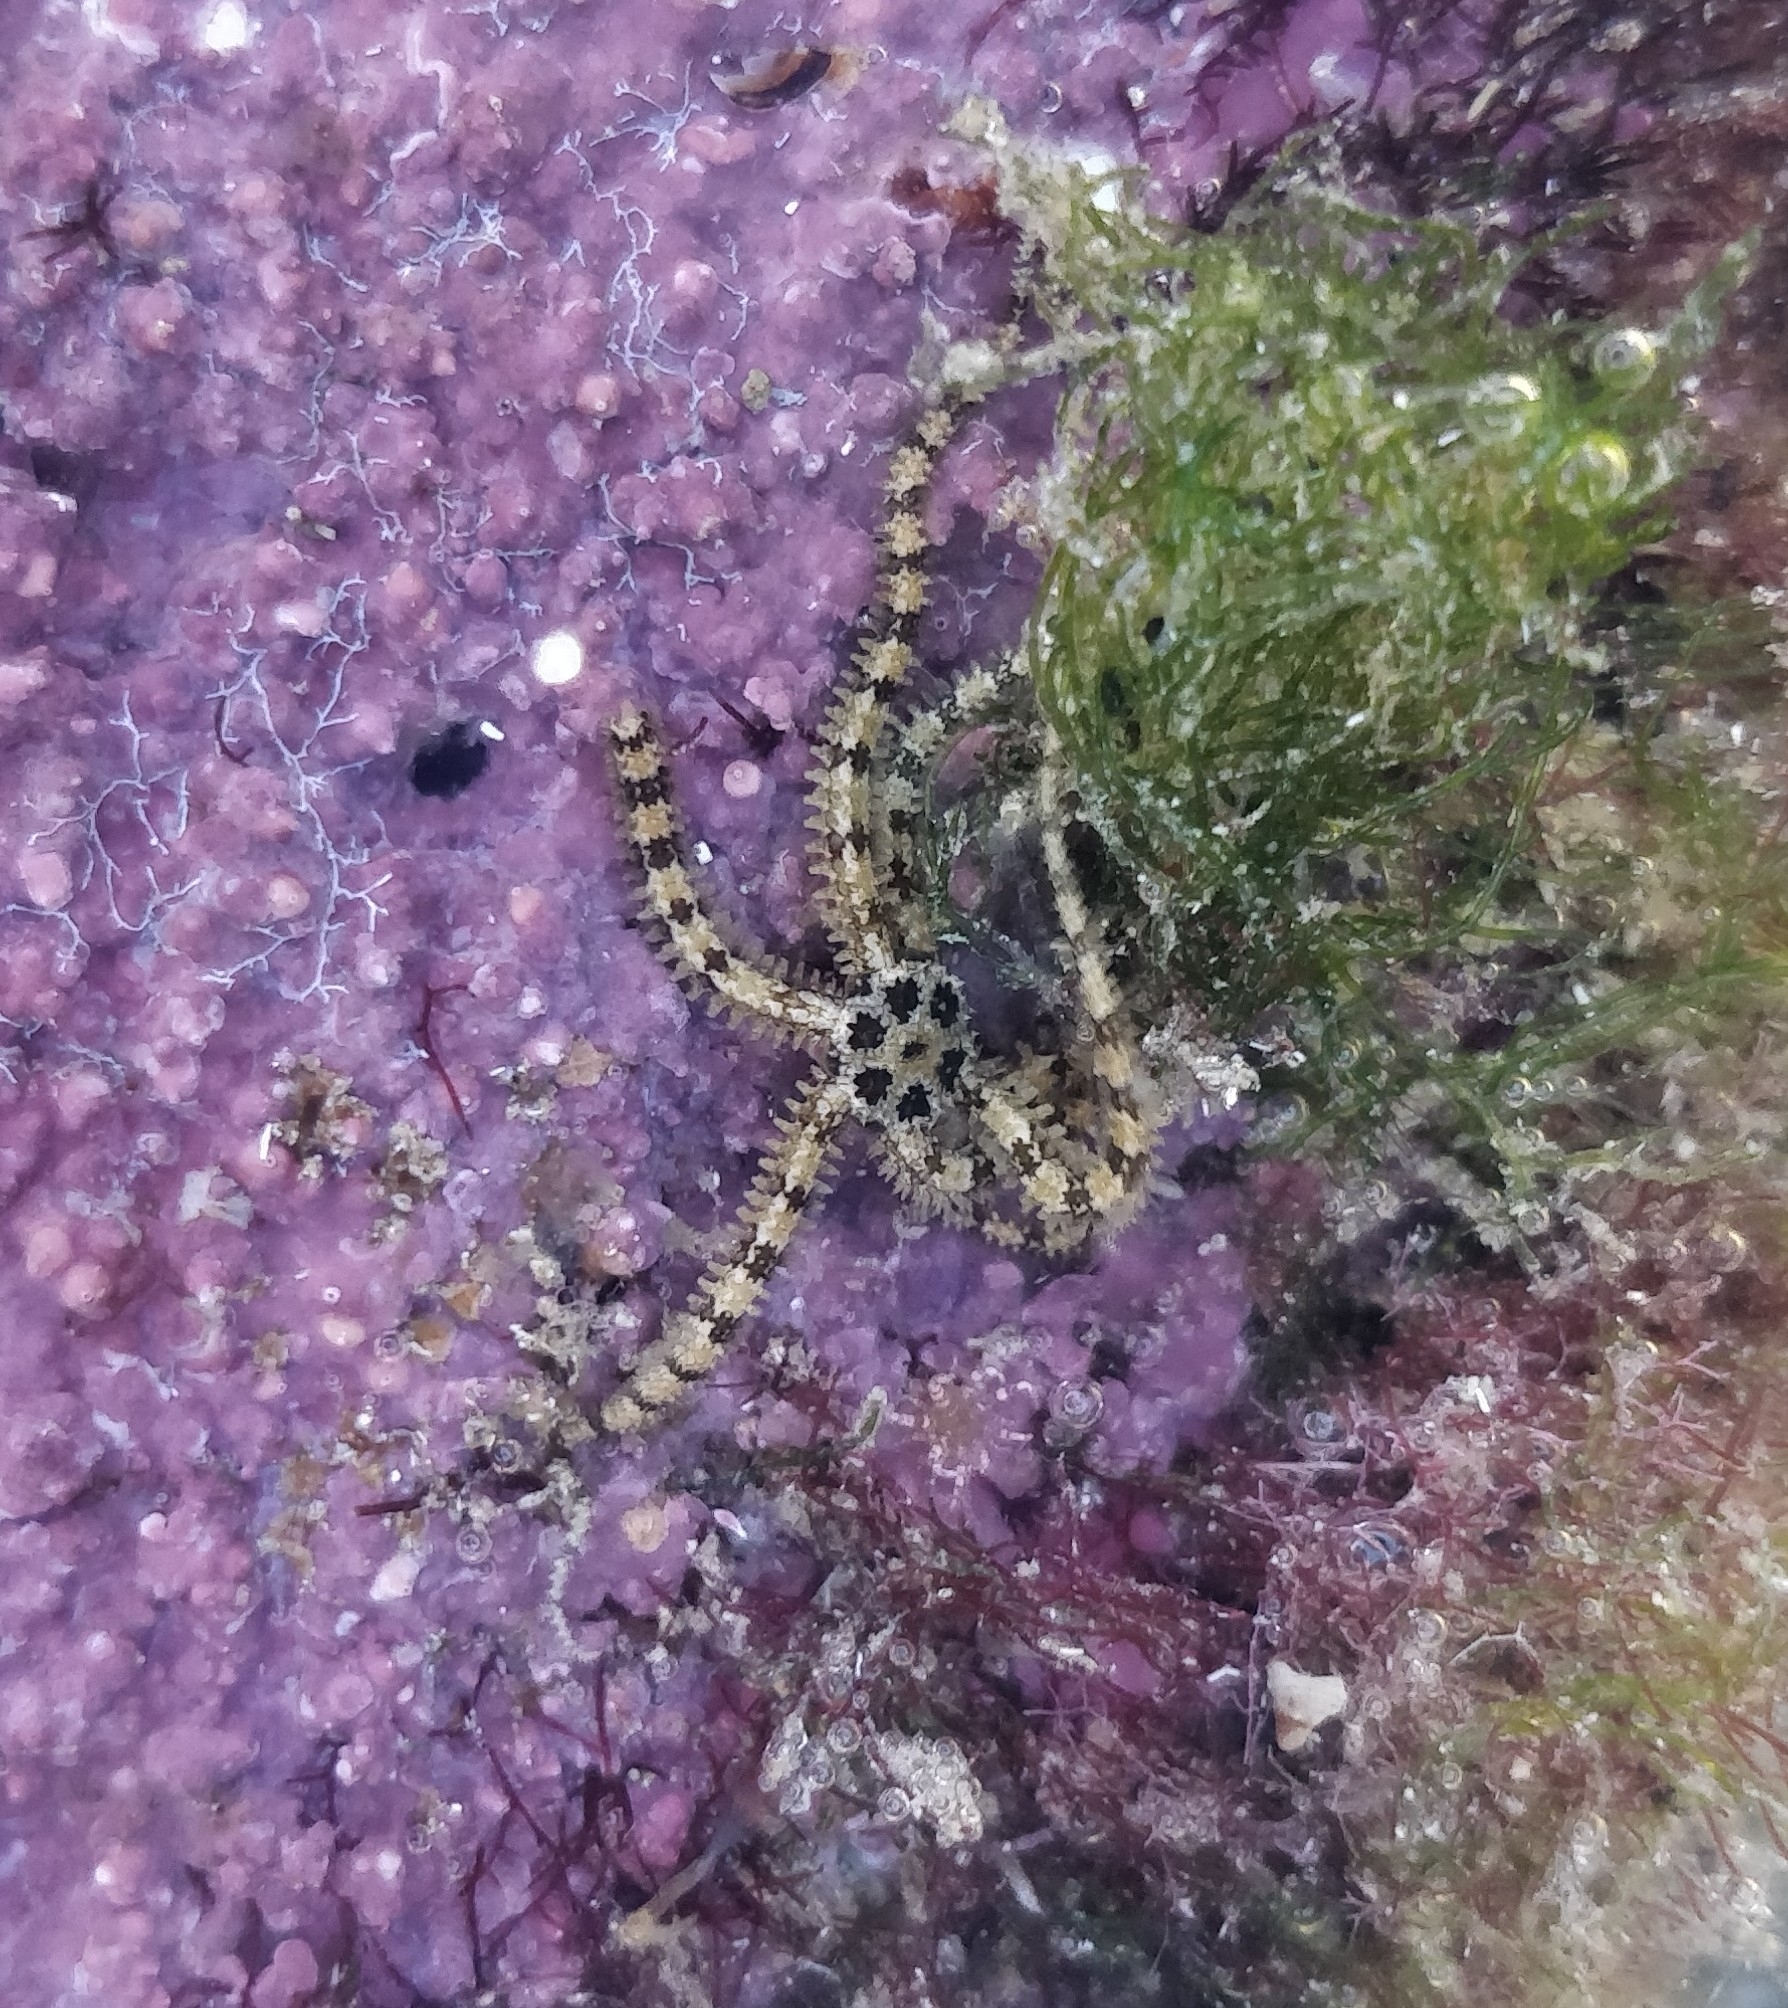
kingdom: Animalia
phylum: Echinodermata
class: Ophiuroidea
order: Amphilepidida
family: Ophiactidae
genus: Ophiactis
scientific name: Ophiactis savignyi
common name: Savigny's brittle star
